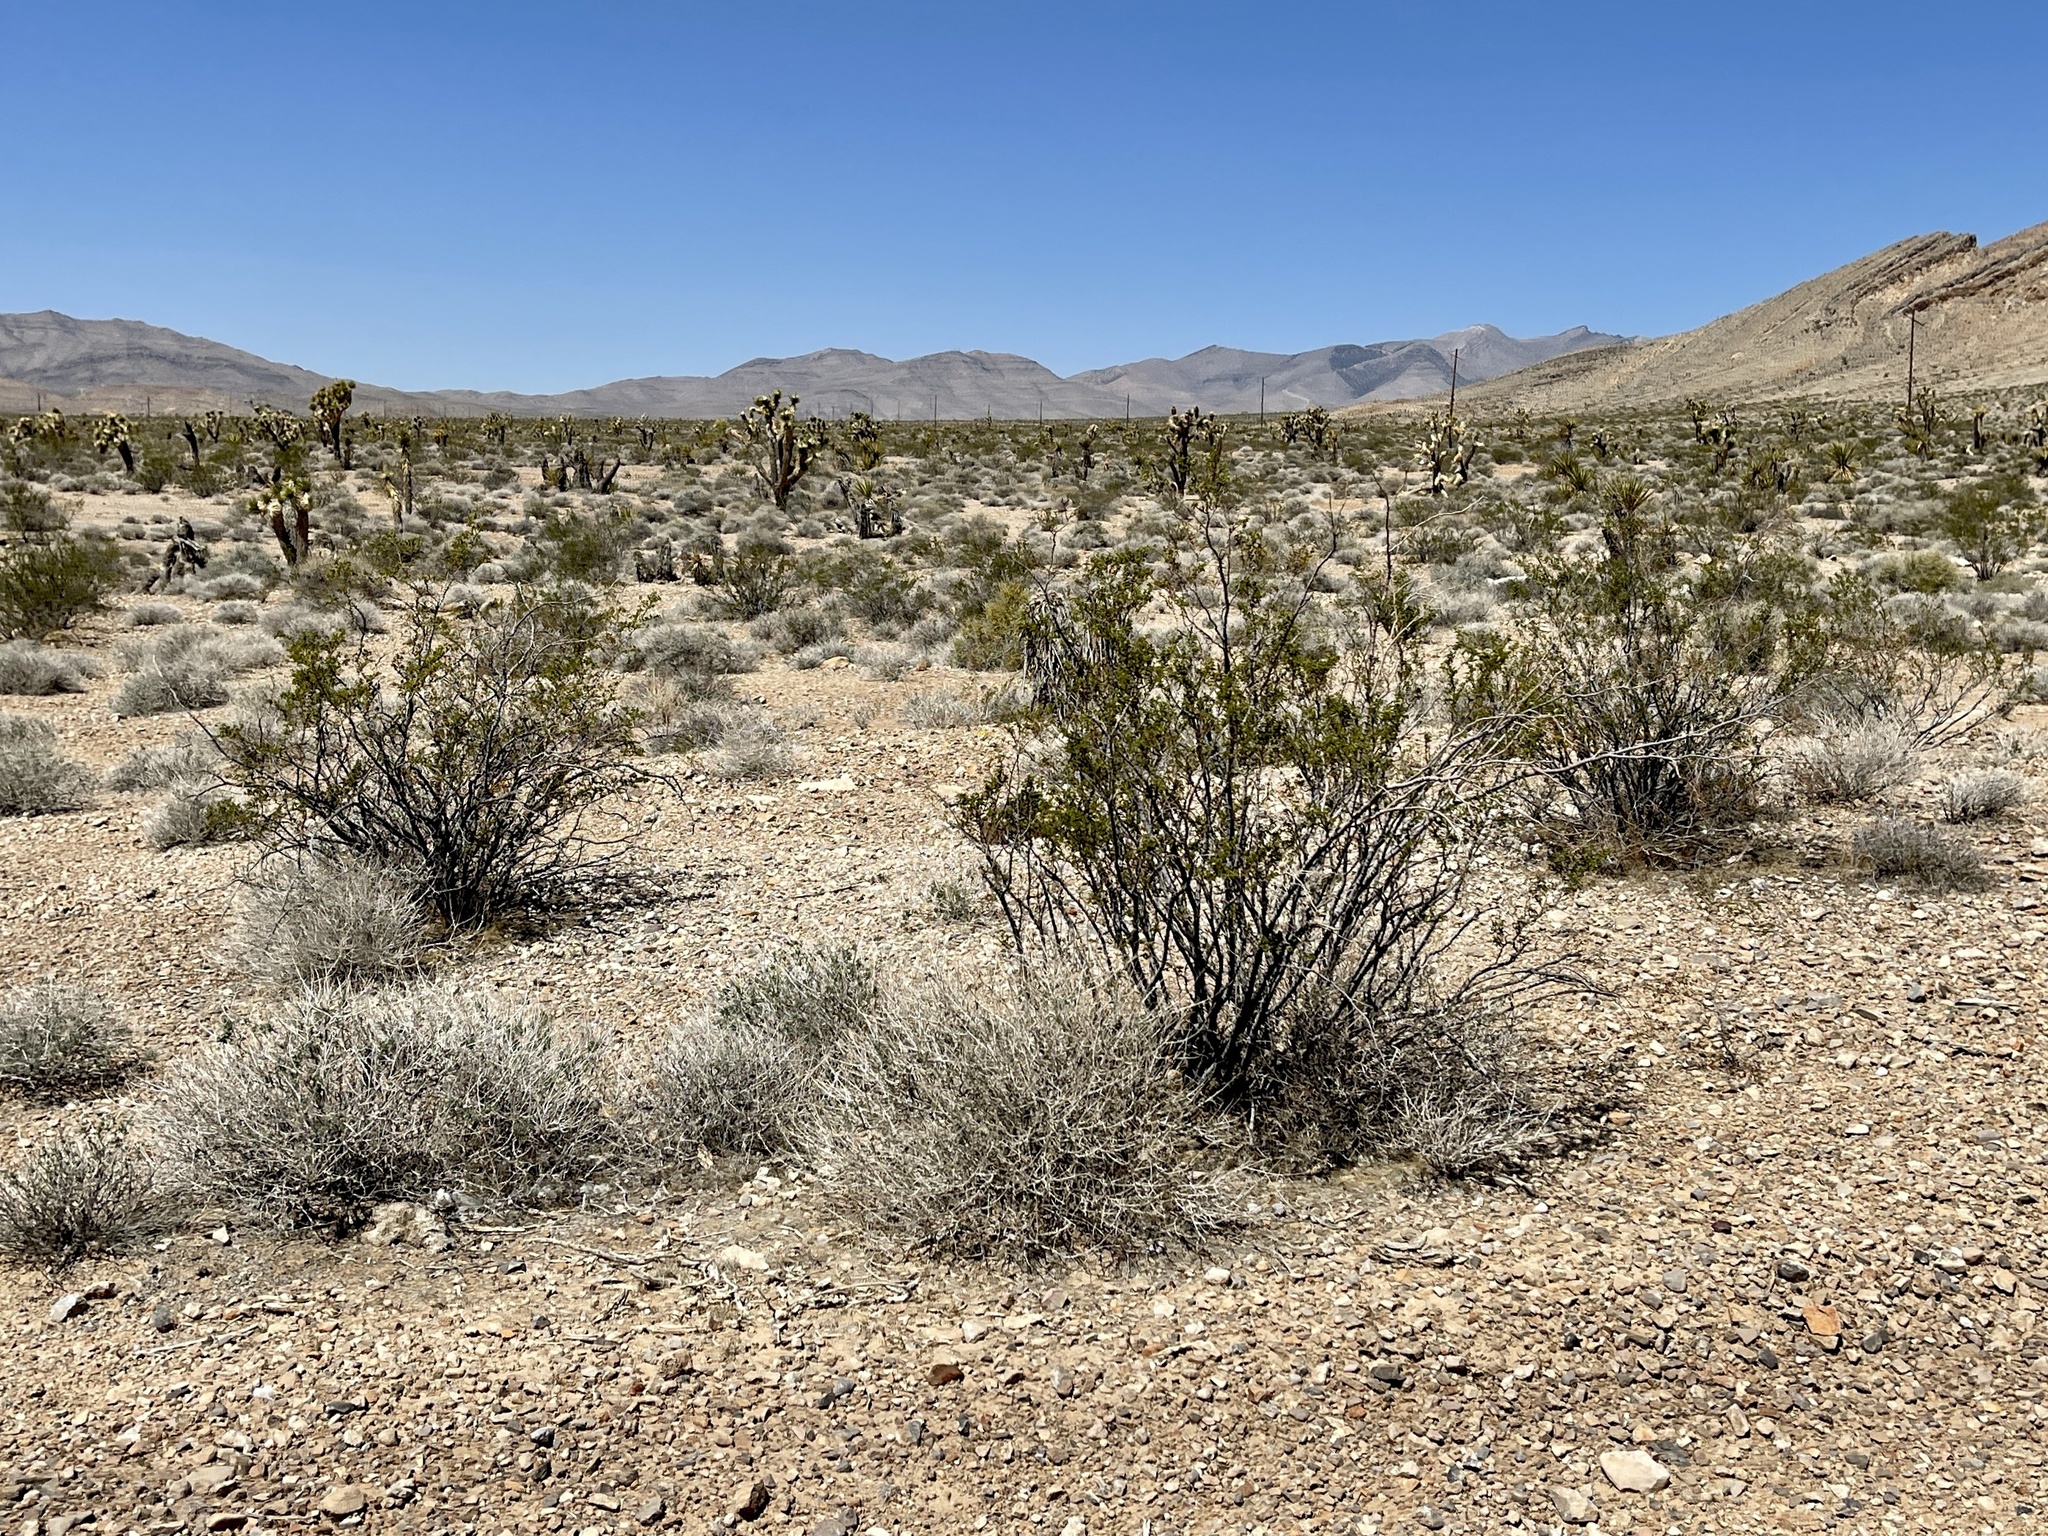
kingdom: Plantae
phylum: Tracheophyta
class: Magnoliopsida
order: Zygophyllales
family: Zygophyllaceae
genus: Larrea
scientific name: Larrea tridentata
